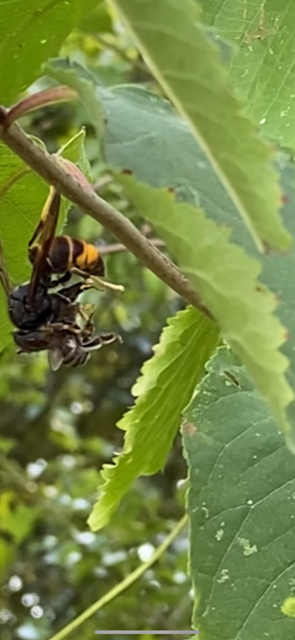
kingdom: Animalia
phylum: Arthropoda
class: Insecta
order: Hymenoptera
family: Vespidae
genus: Vespa
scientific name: Vespa velutina
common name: Asian hornet
